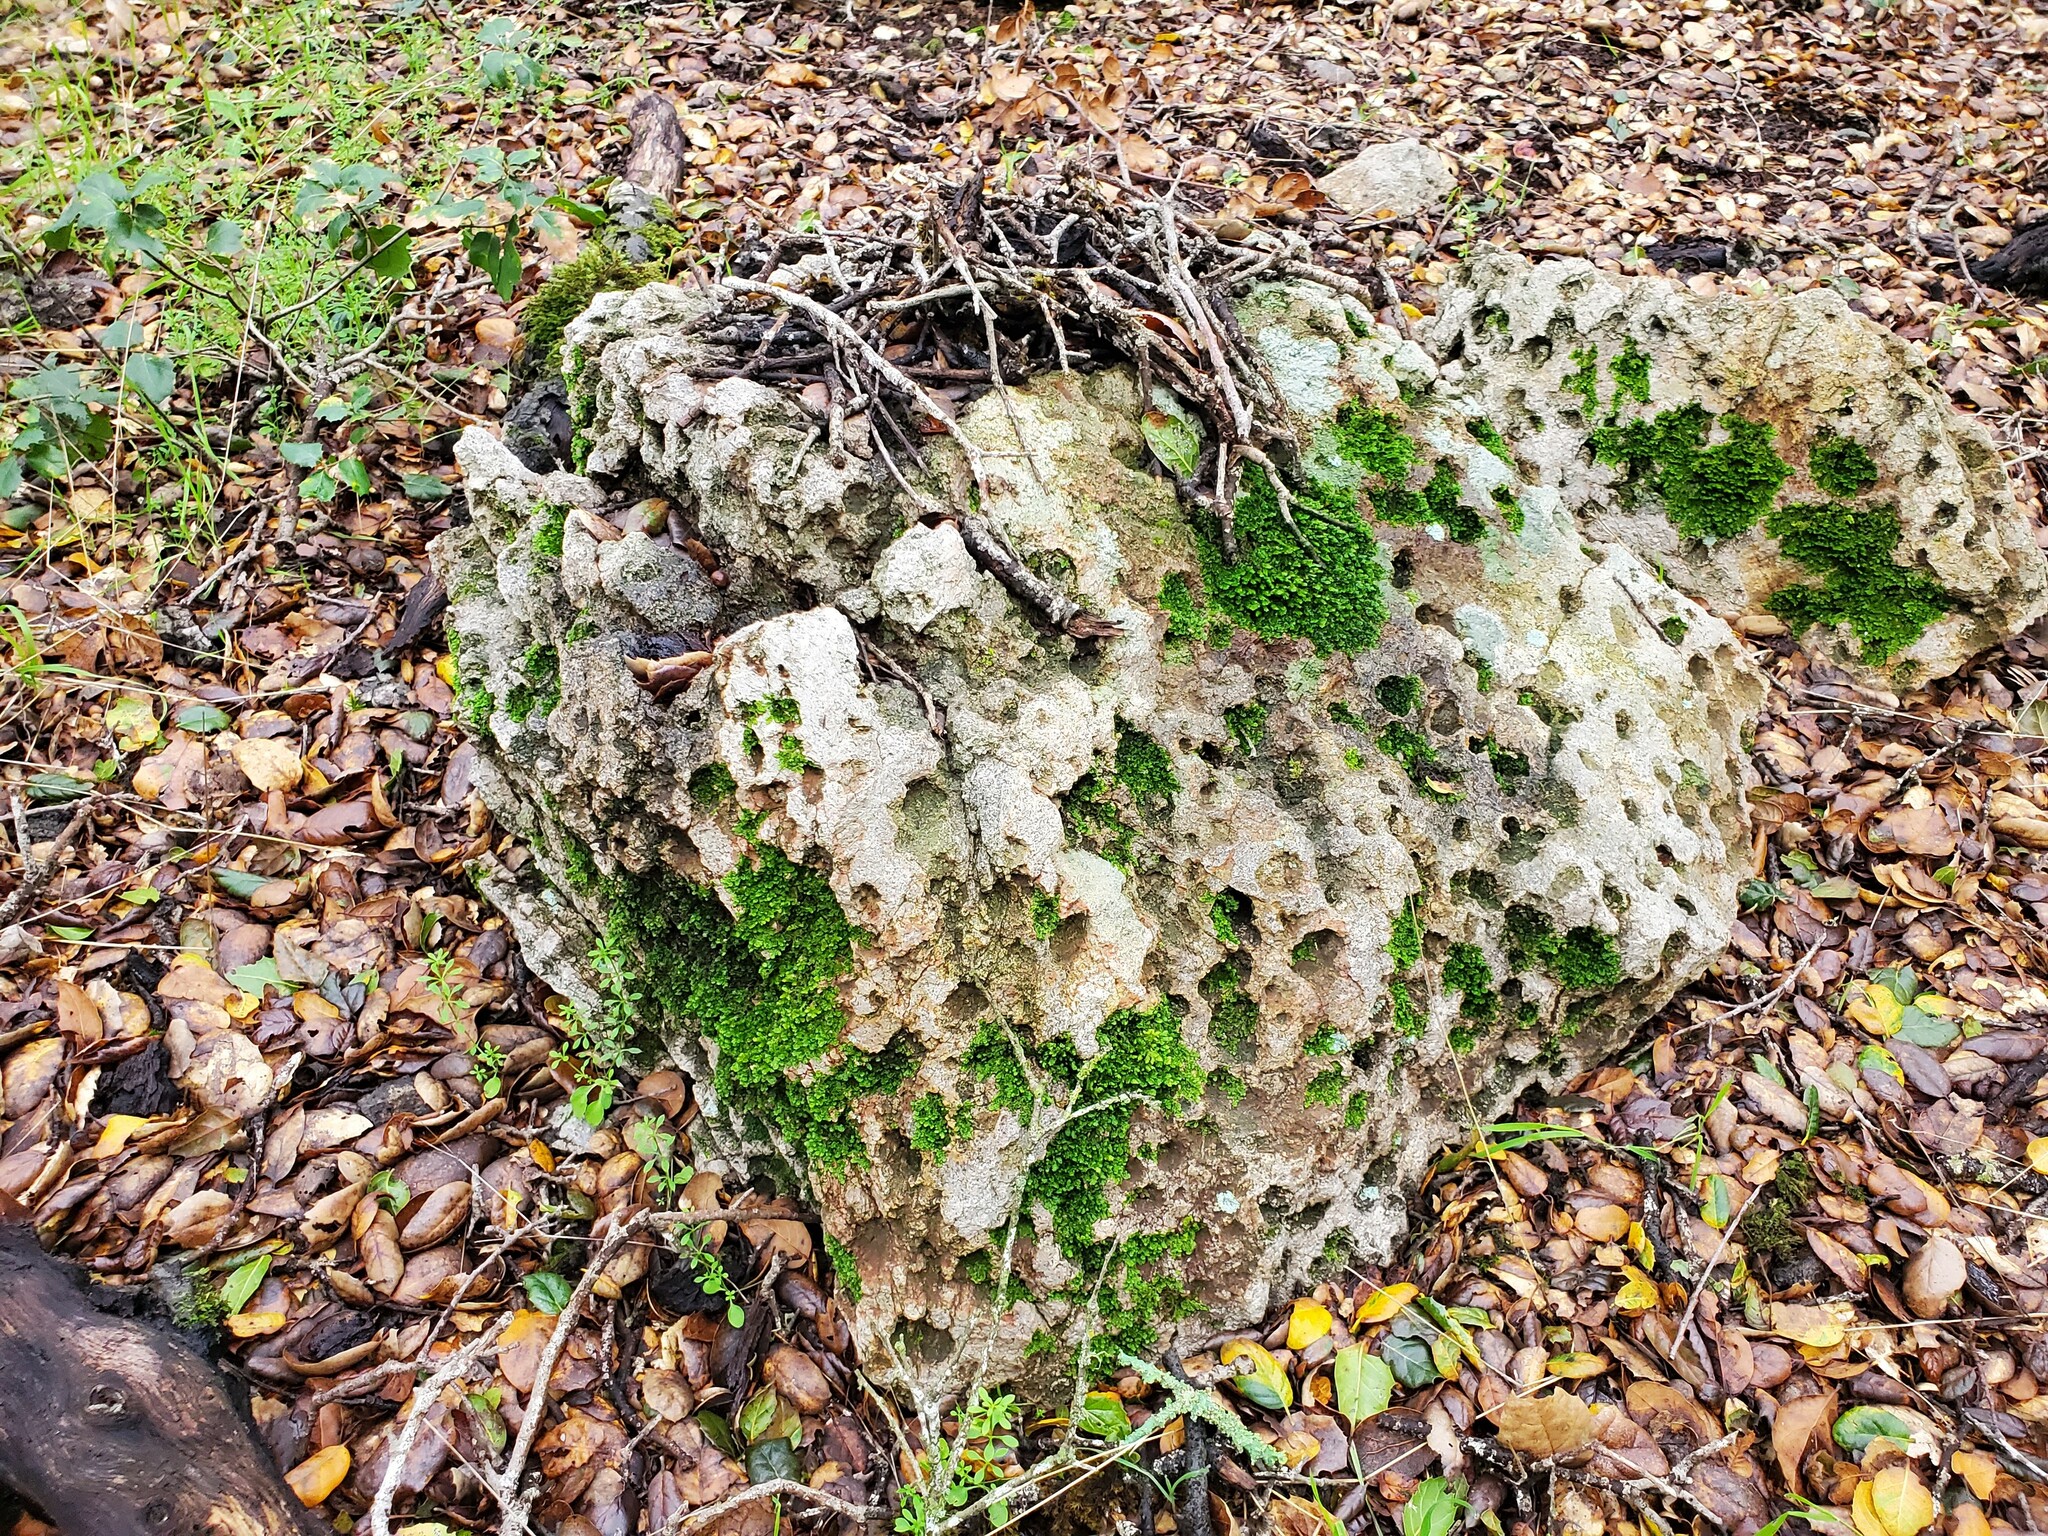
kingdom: Plantae
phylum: Bryophyta
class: Bryopsida
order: Grimmiales
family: Grimmiaceae
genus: Grimmia
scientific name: Grimmia laevigata
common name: Hoary grimmia
